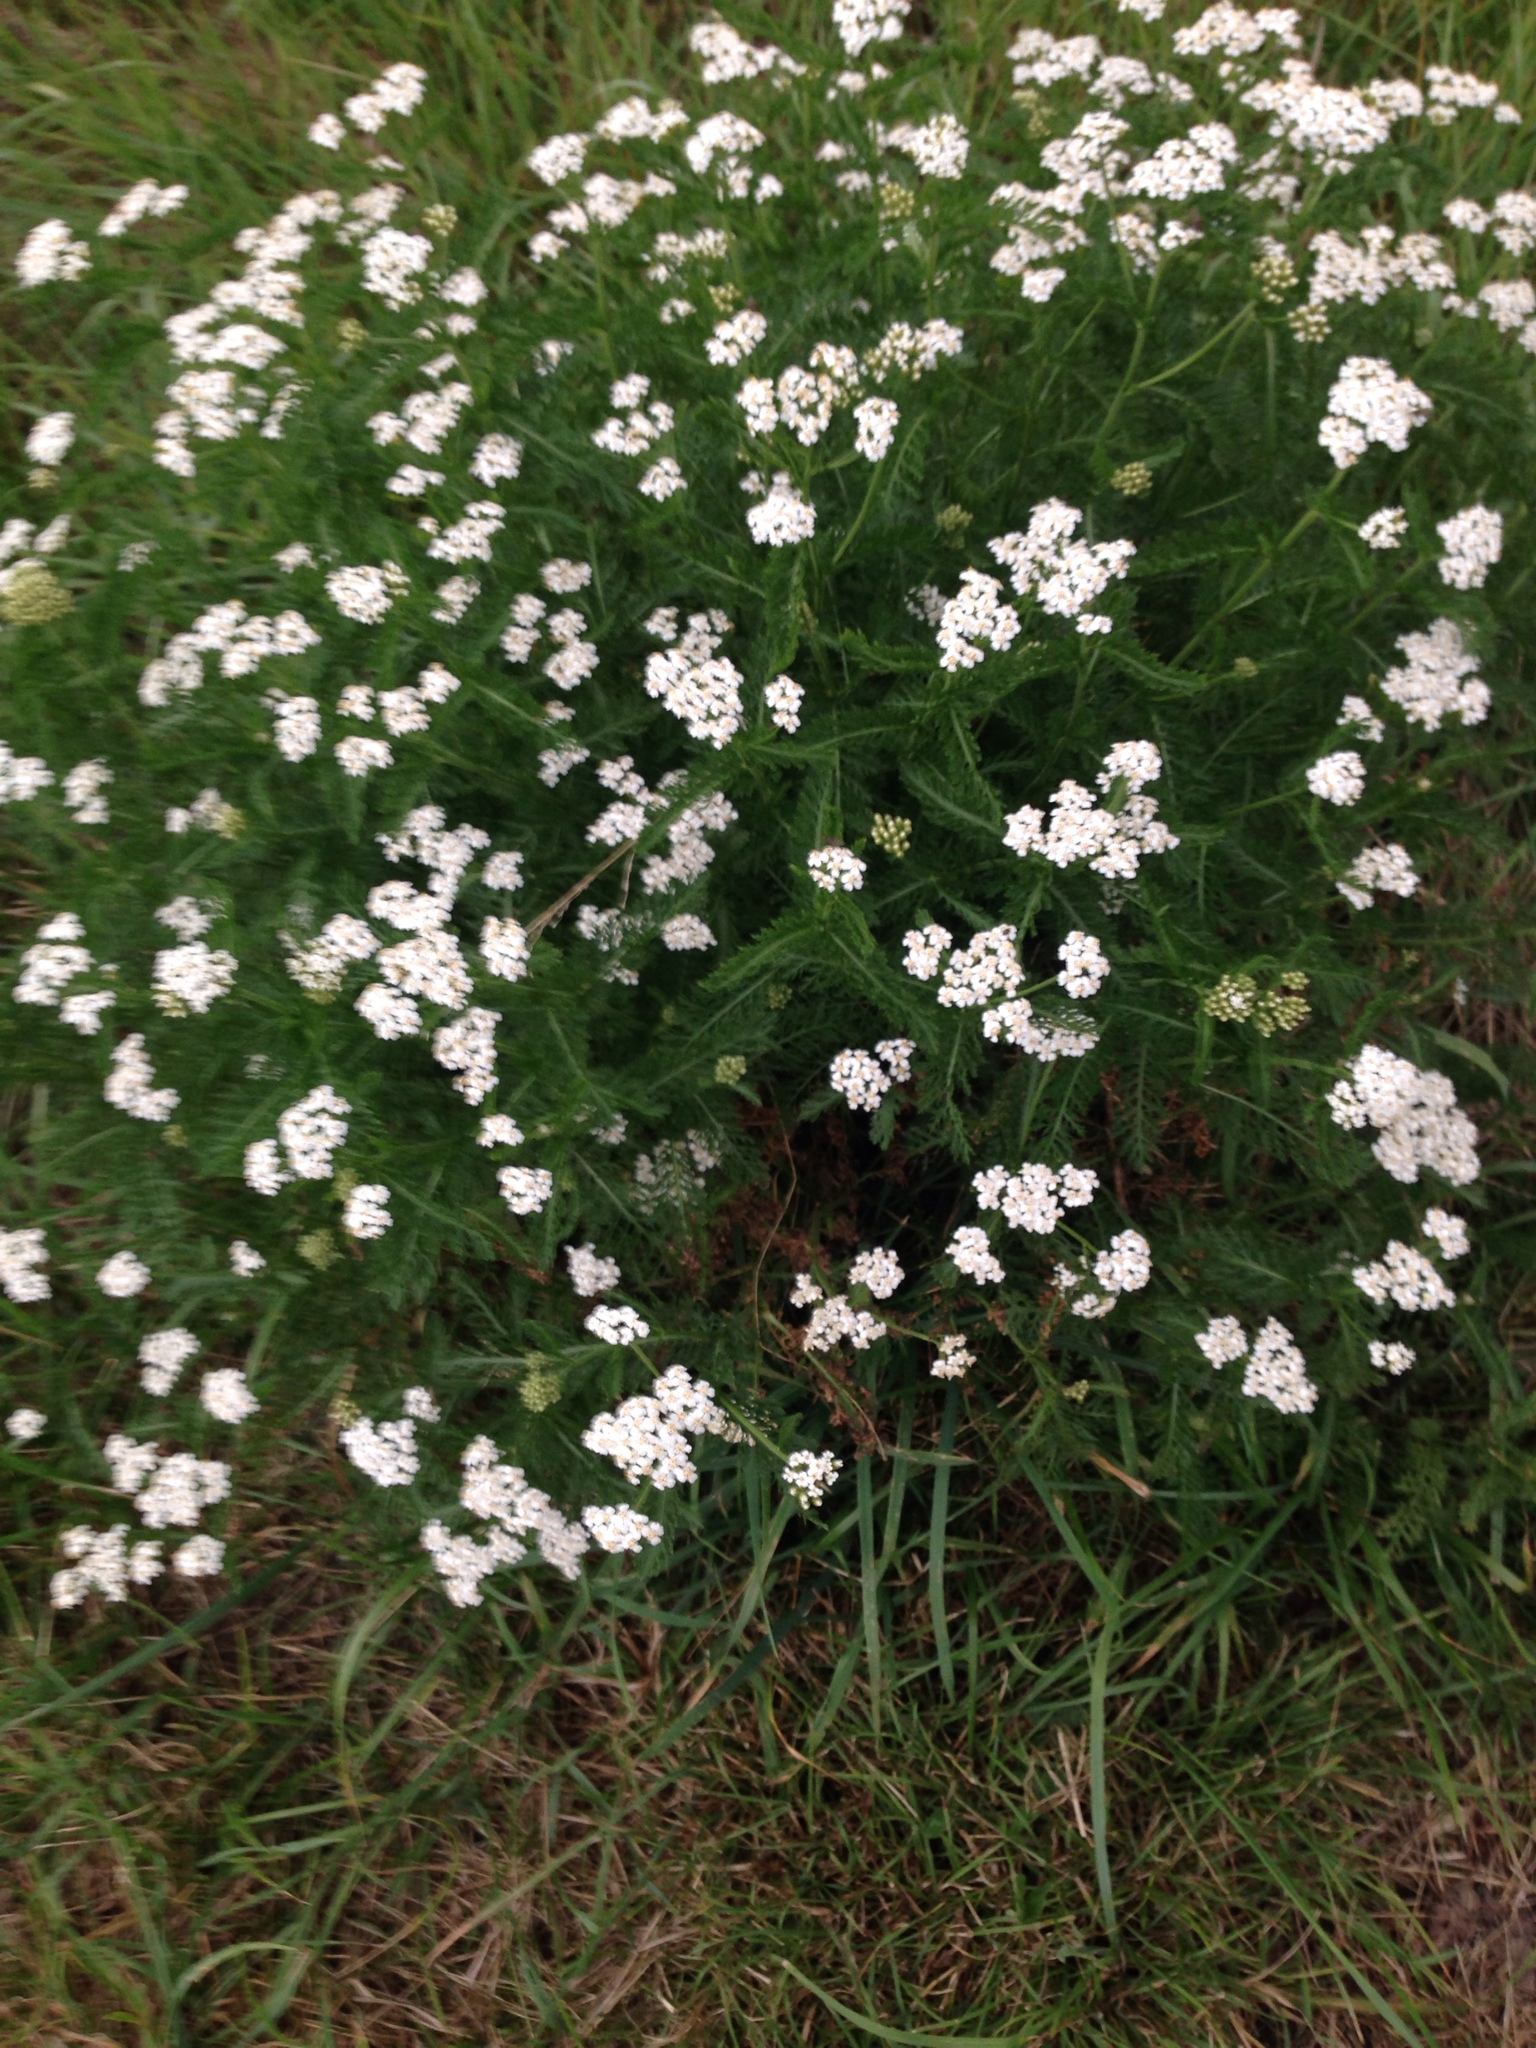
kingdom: Plantae
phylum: Tracheophyta
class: Magnoliopsida
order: Asterales
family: Asteraceae
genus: Achillea
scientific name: Achillea millefolium
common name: Yarrow
